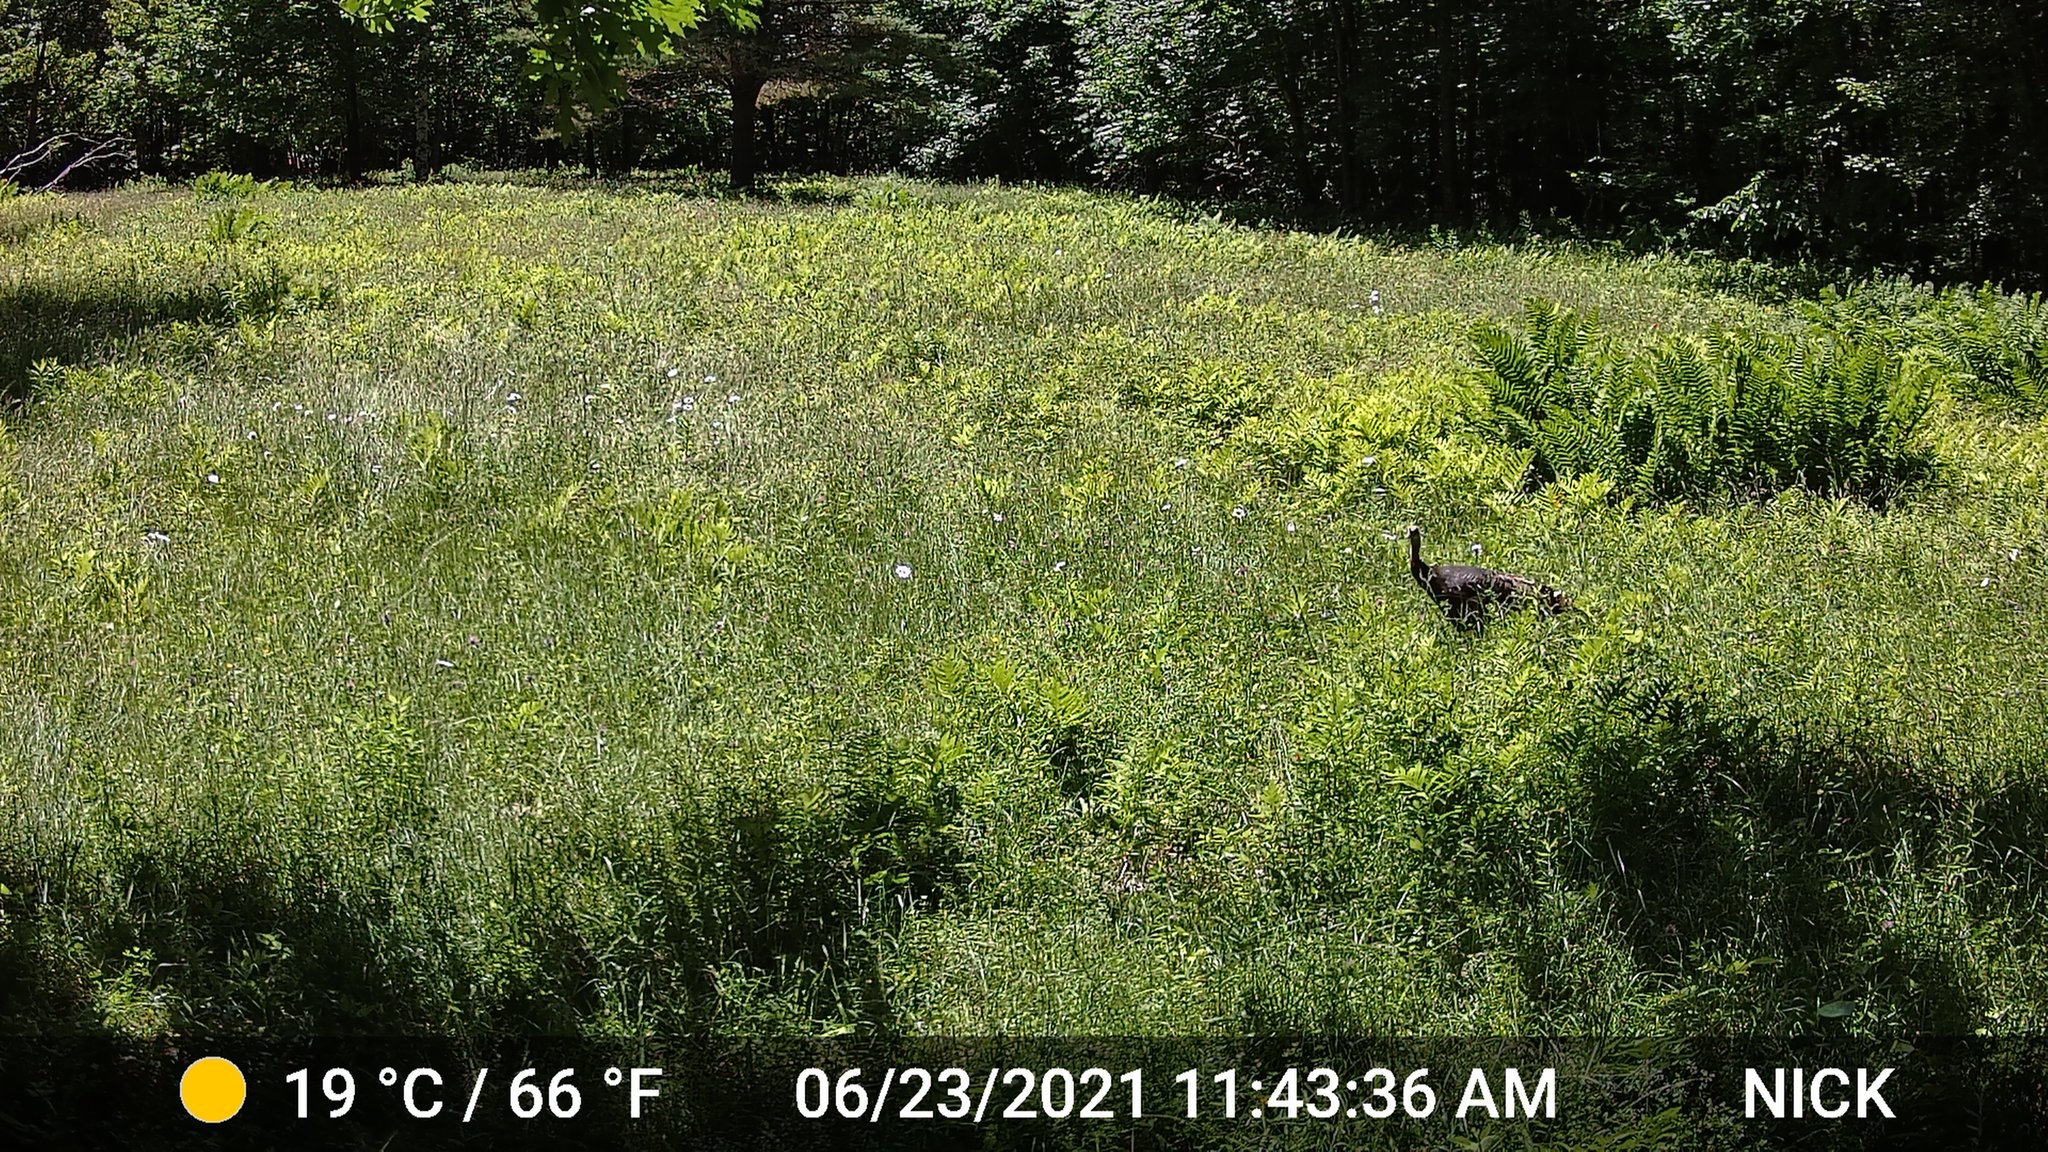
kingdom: Animalia
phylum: Chordata
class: Aves
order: Galliformes
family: Phasianidae
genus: Meleagris
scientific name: Meleagris gallopavo
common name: Wild turkey
